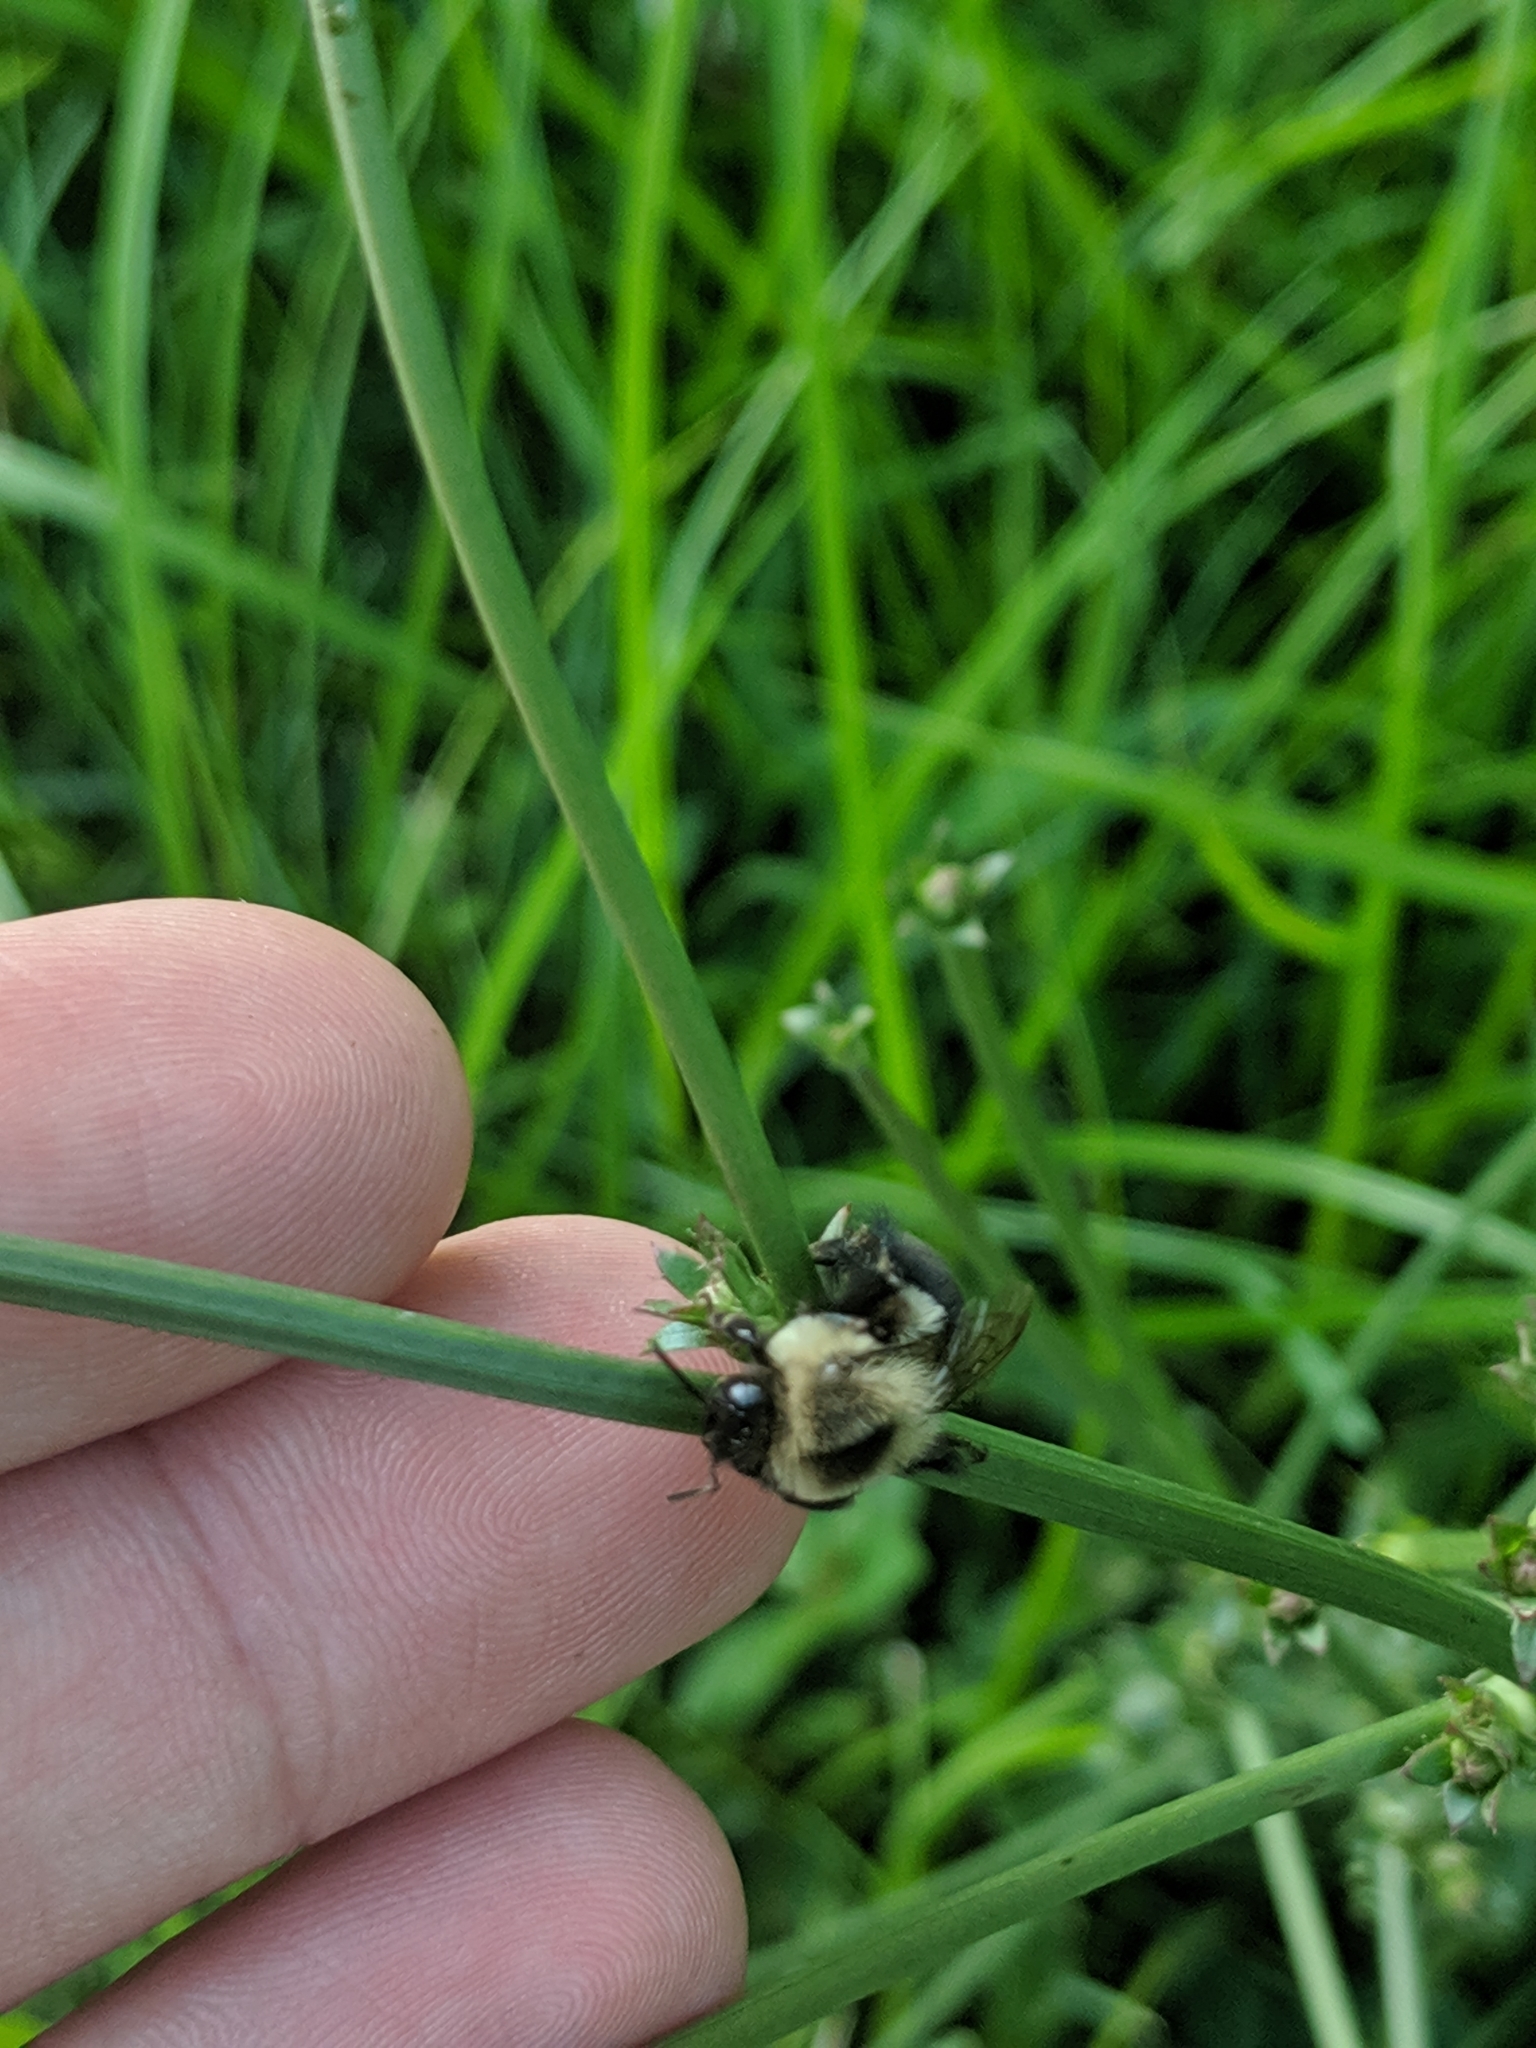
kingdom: Animalia
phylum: Arthropoda
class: Insecta
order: Hymenoptera
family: Apidae
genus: Bombus
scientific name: Bombus impatiens
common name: Common eastern bumble bee
